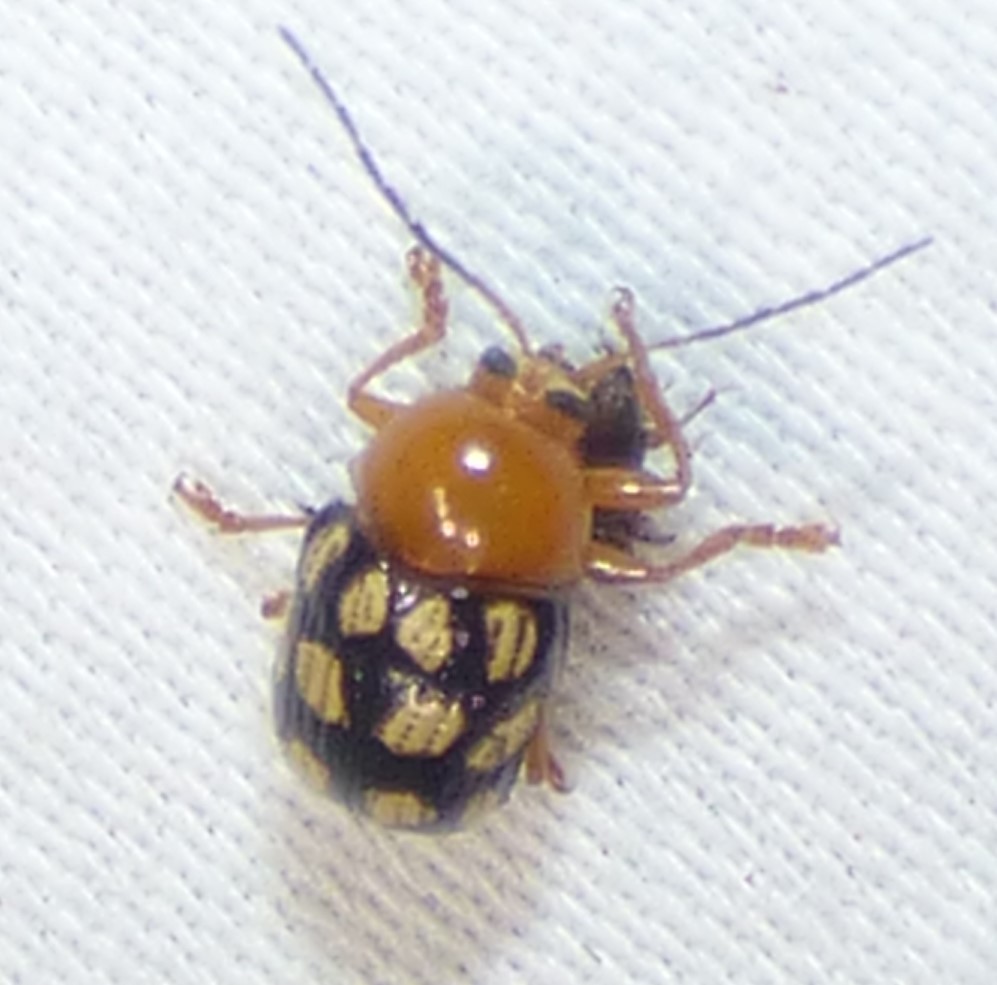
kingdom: Animalia
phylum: Arthropoda
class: Insecta
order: Coleoptera
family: Chrysomelidae
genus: Cryptocephalus
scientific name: Cryptocephalus guttulatus
